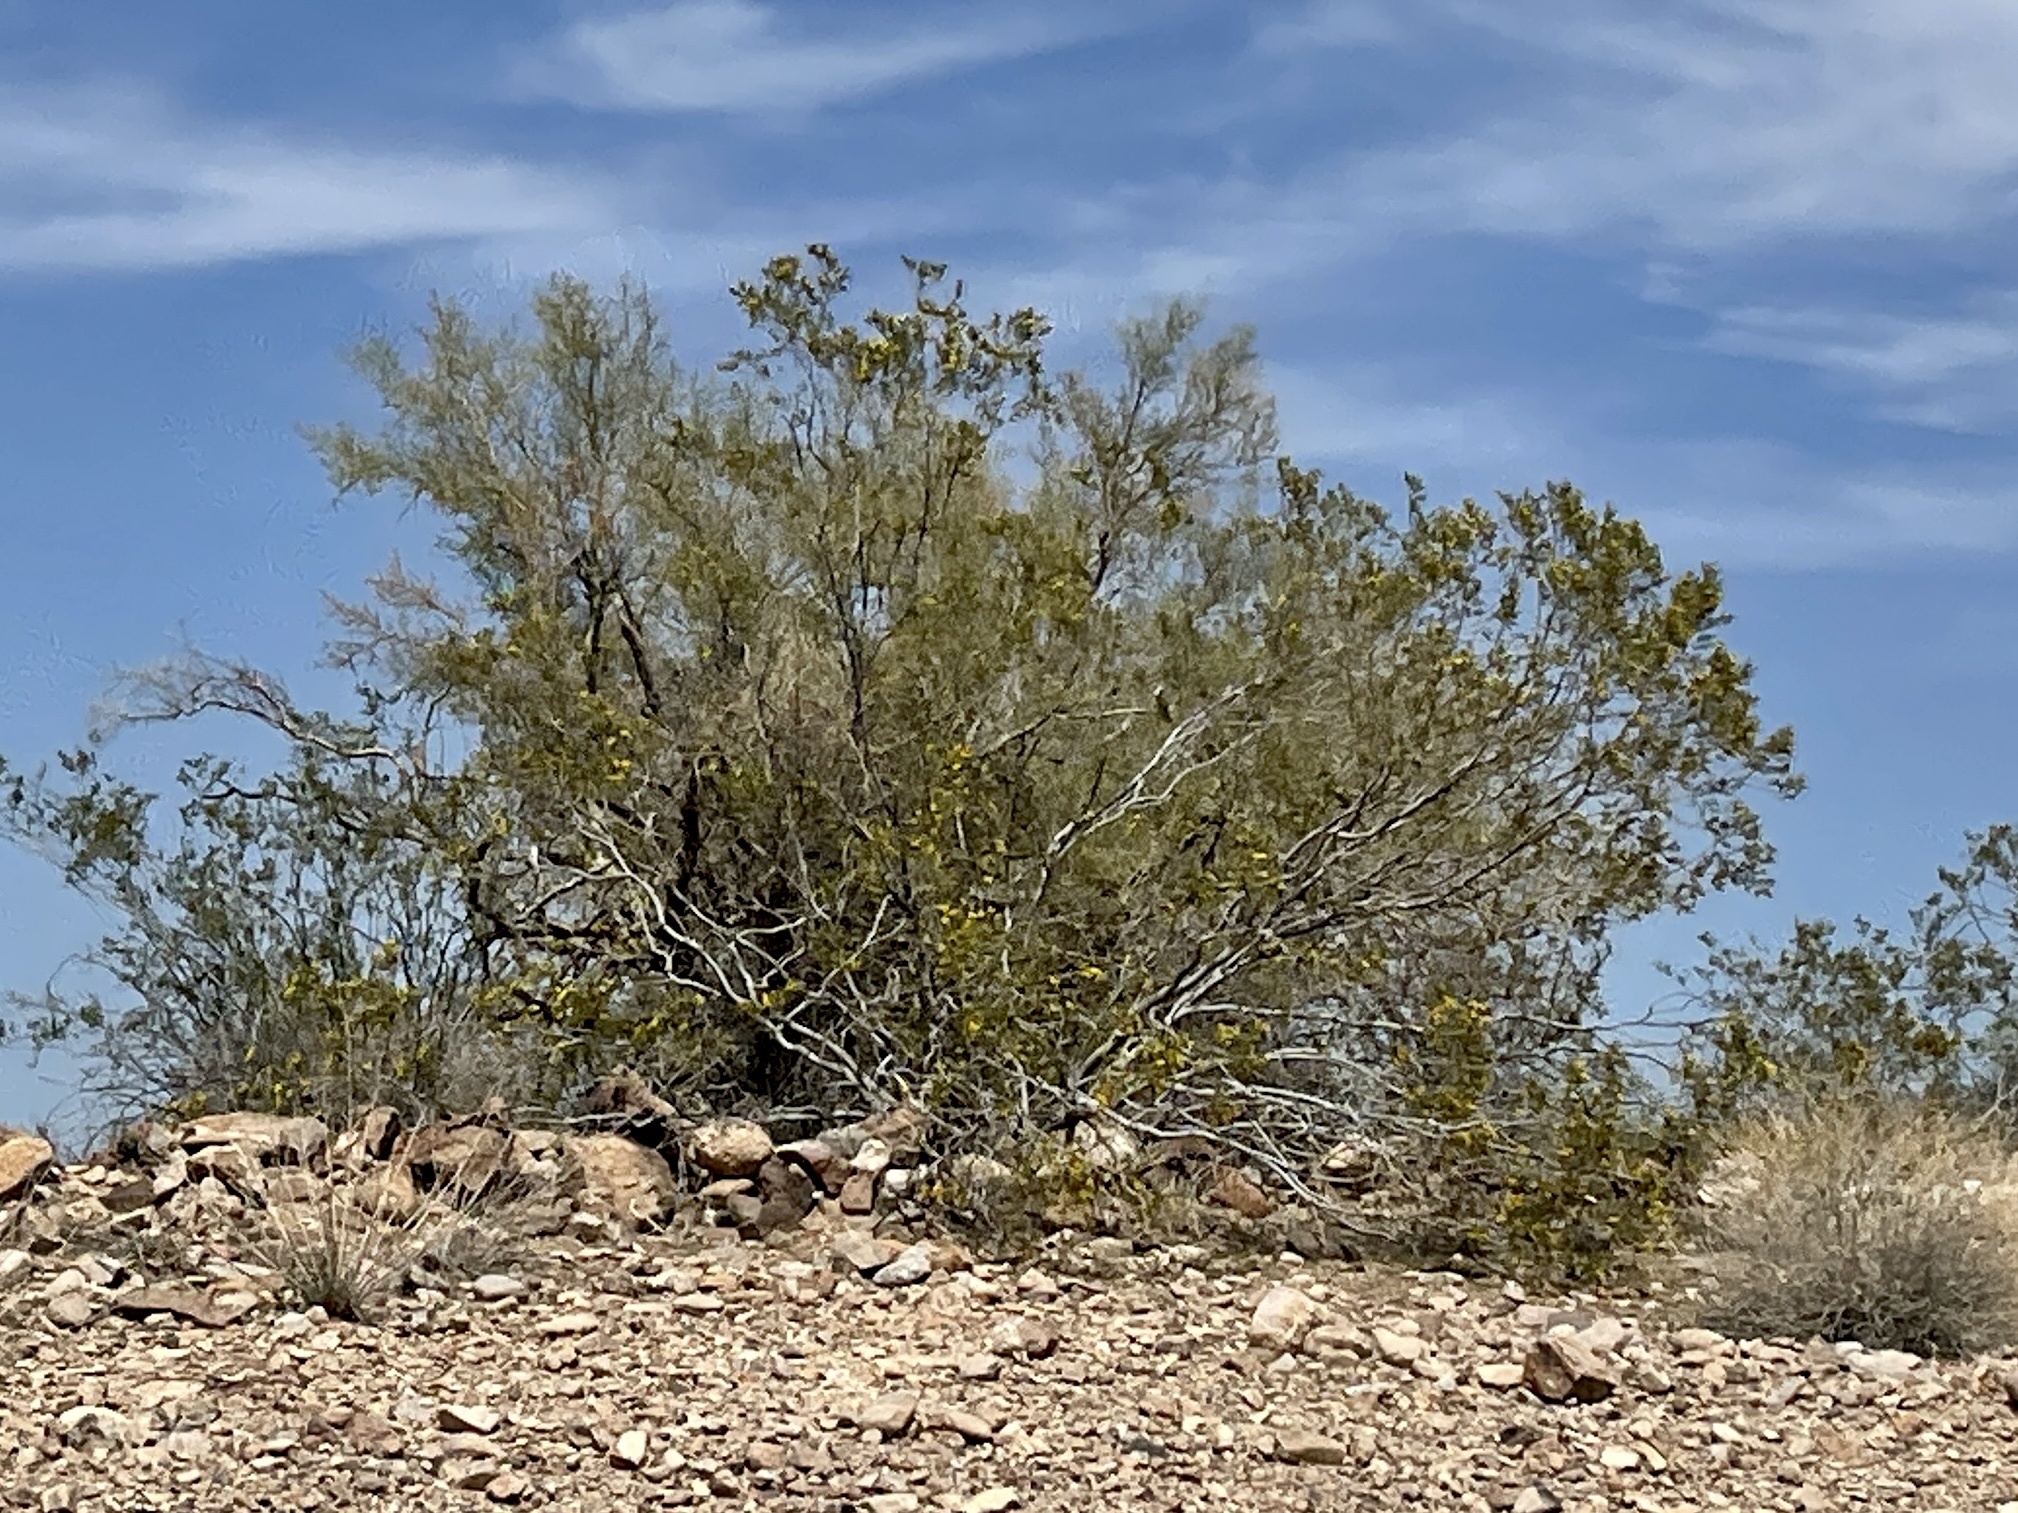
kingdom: Plantae
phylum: Tracheophyta
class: Magnoliopsida
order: Zygophyllales
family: Zygophyllaceae
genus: Larrea
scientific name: Larrea tridentata
